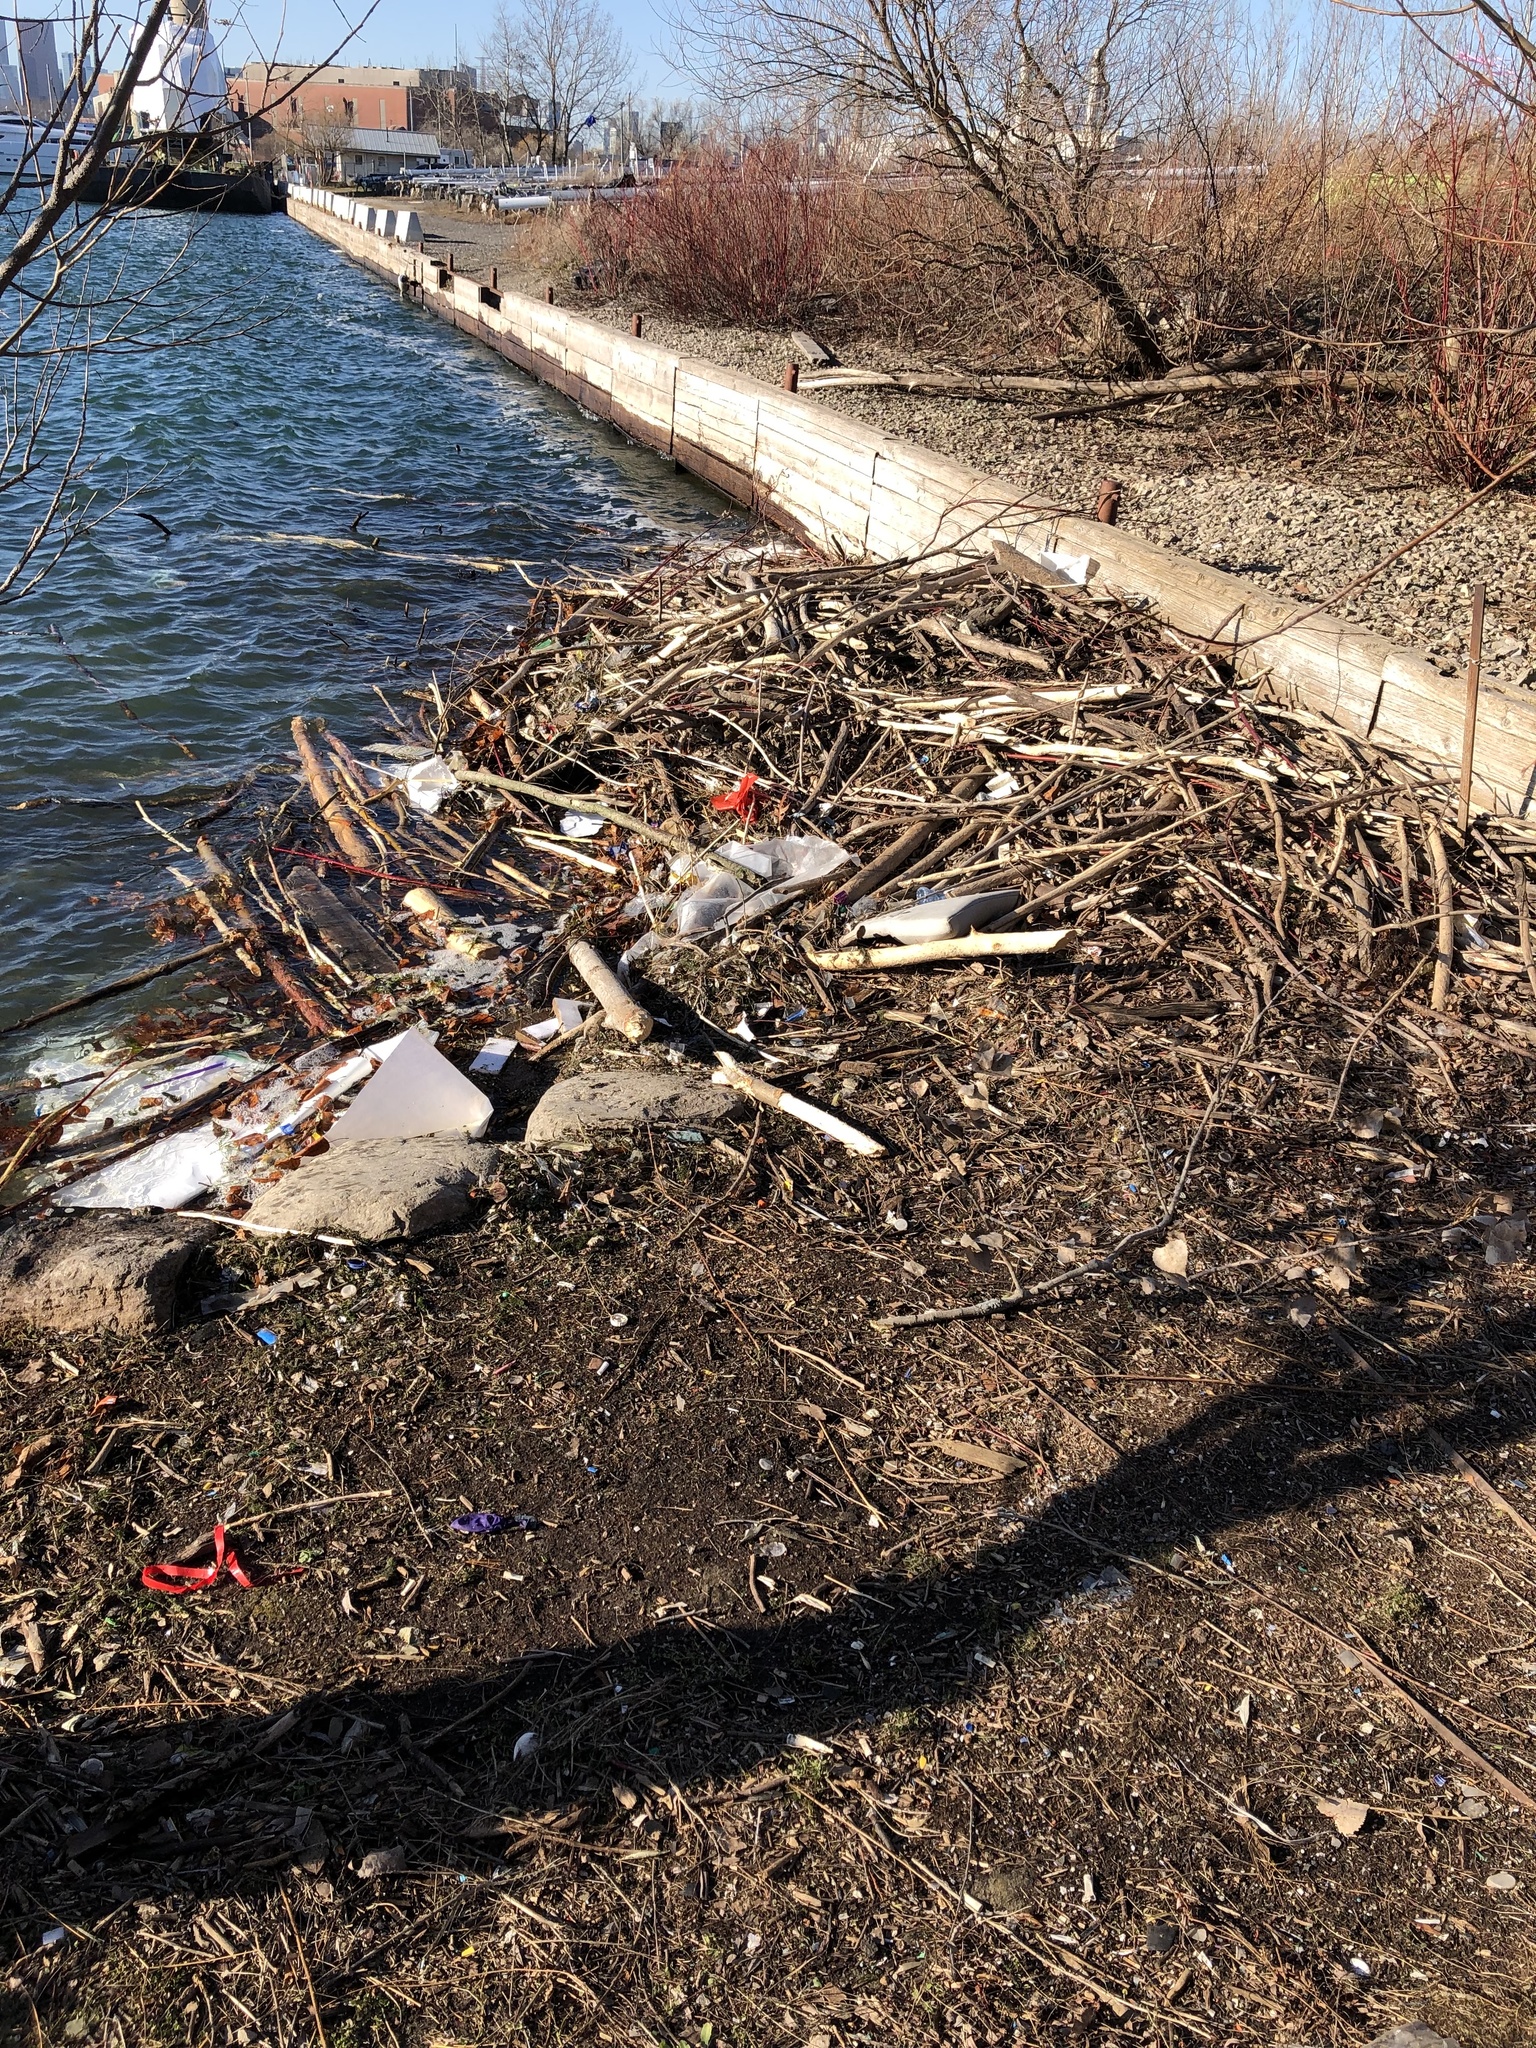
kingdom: Animalia
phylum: Chordata
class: Mammalia
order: Rodentia
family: Castoridae
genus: Castor
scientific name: Castor canadensis
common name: American beaver
